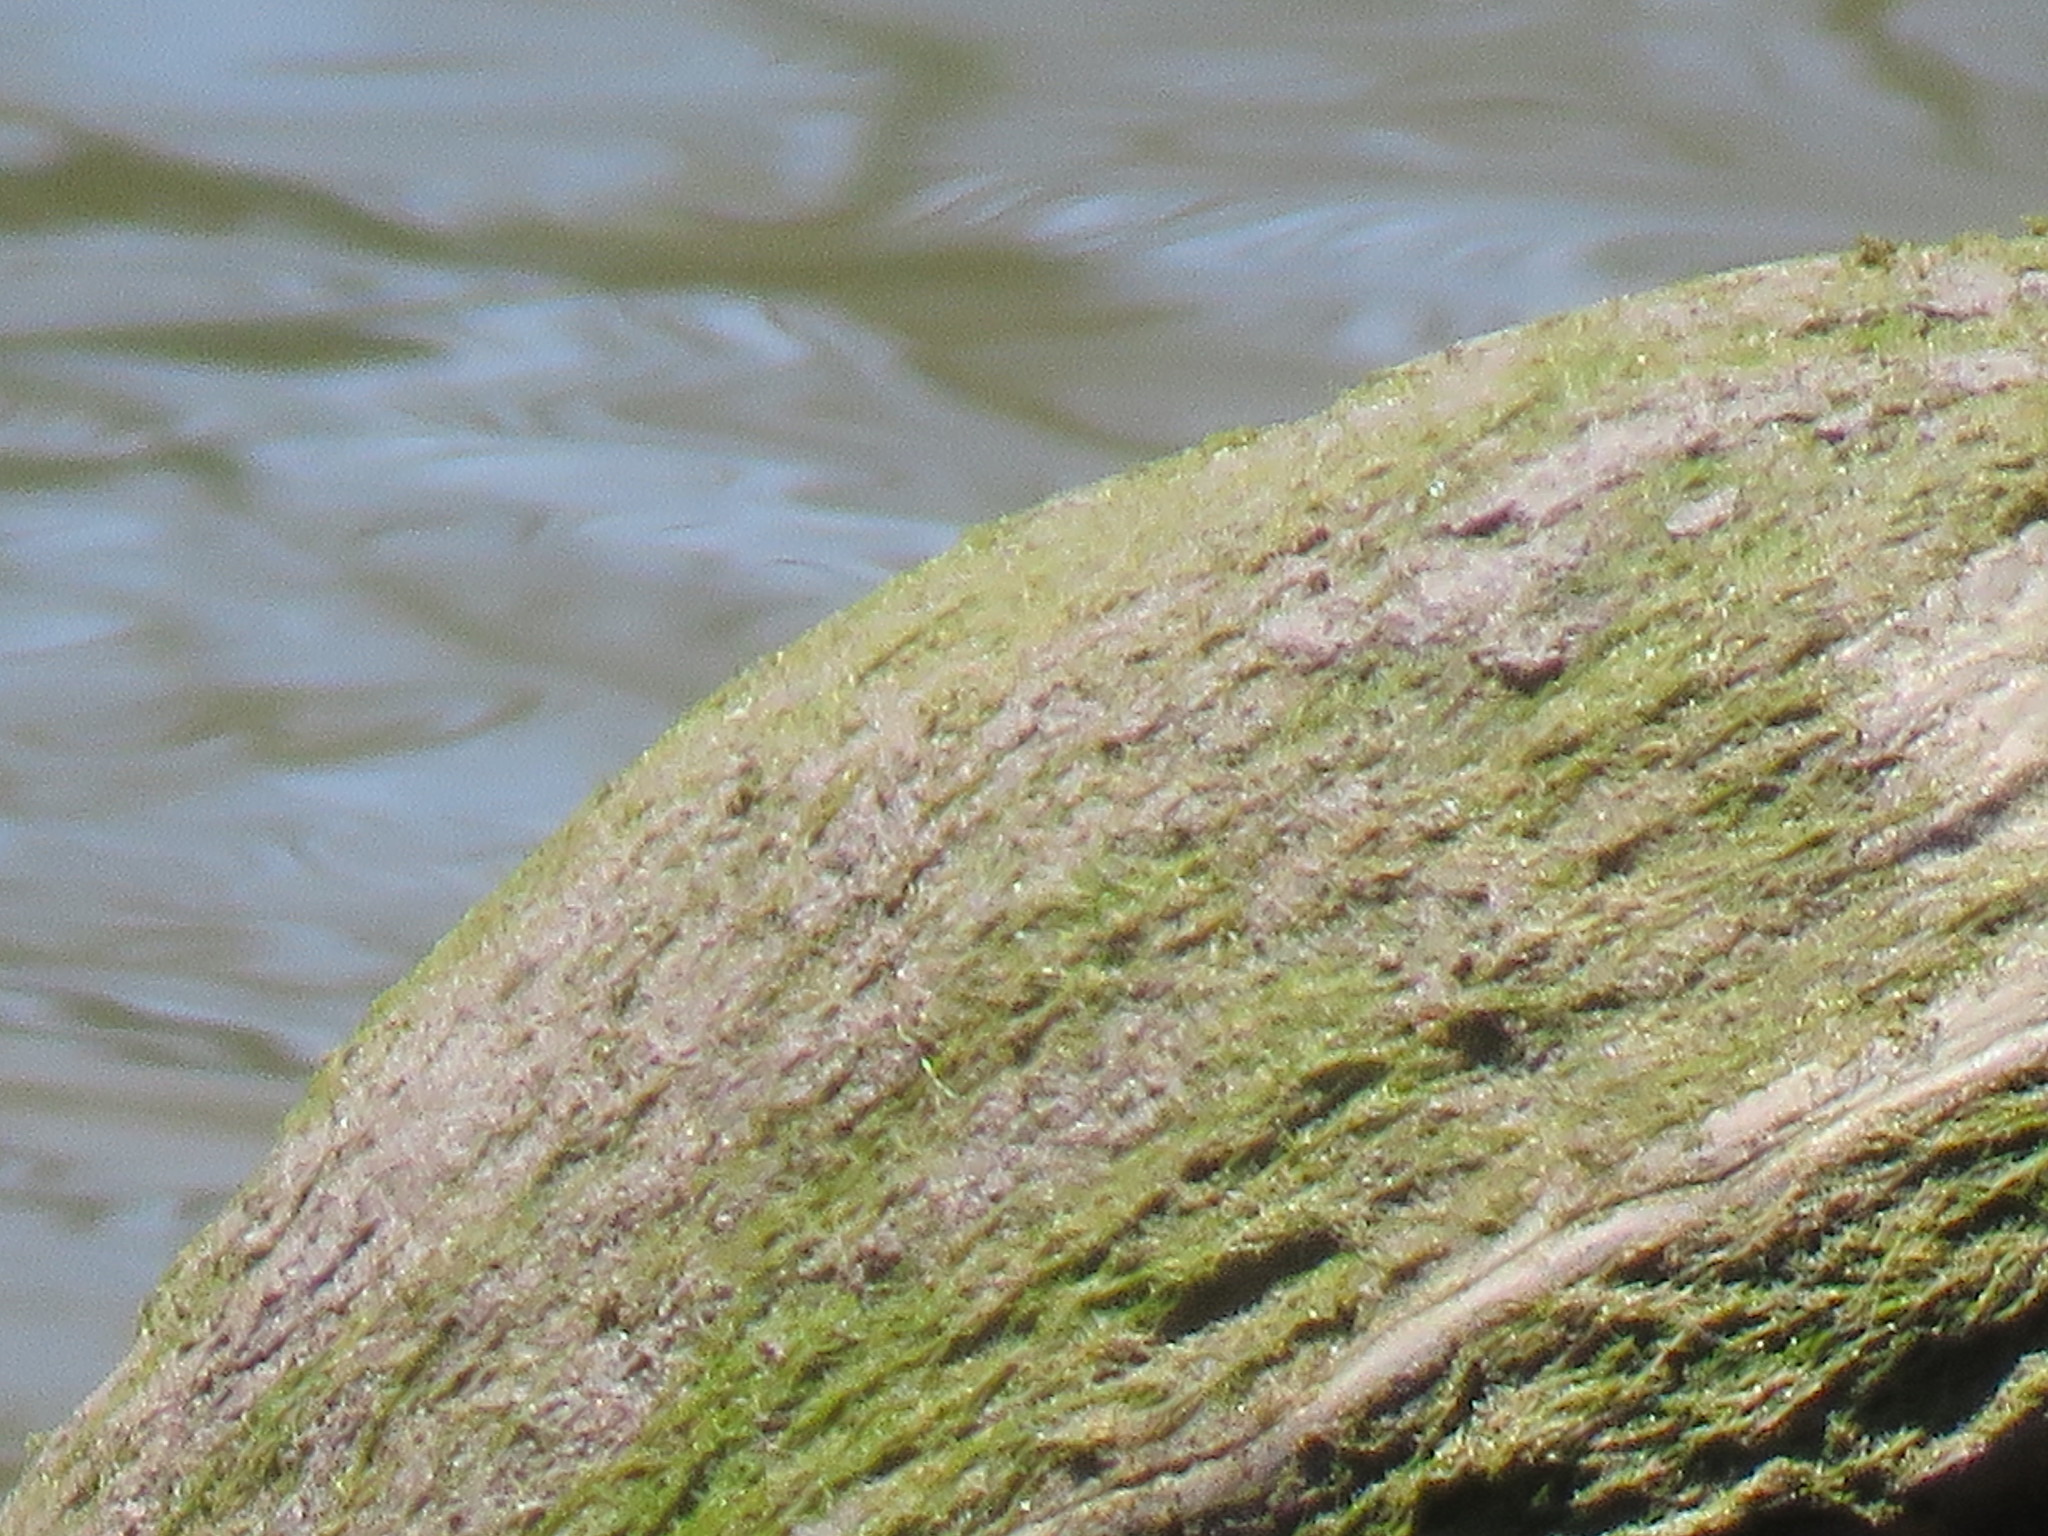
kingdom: Animalia
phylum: Chordata
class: Testudines
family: Emydidae
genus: Trachemys
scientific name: Trachemys scripta
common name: Slider
